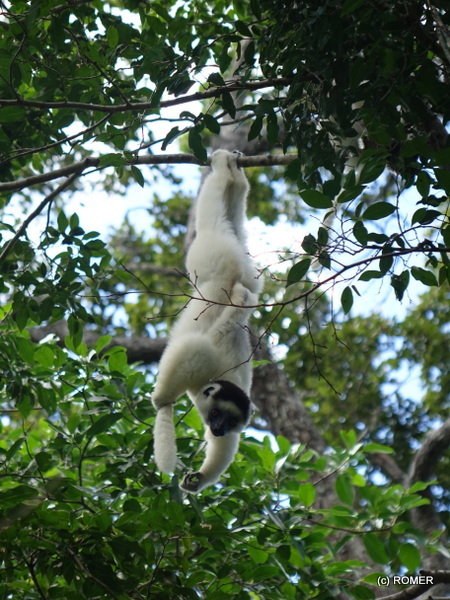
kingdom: Animalia
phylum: Chordata
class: Mammalia
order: Primates
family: Indriidae
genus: Propithecus
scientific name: Propithecus verreauxi
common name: Verreaux's sifaka
